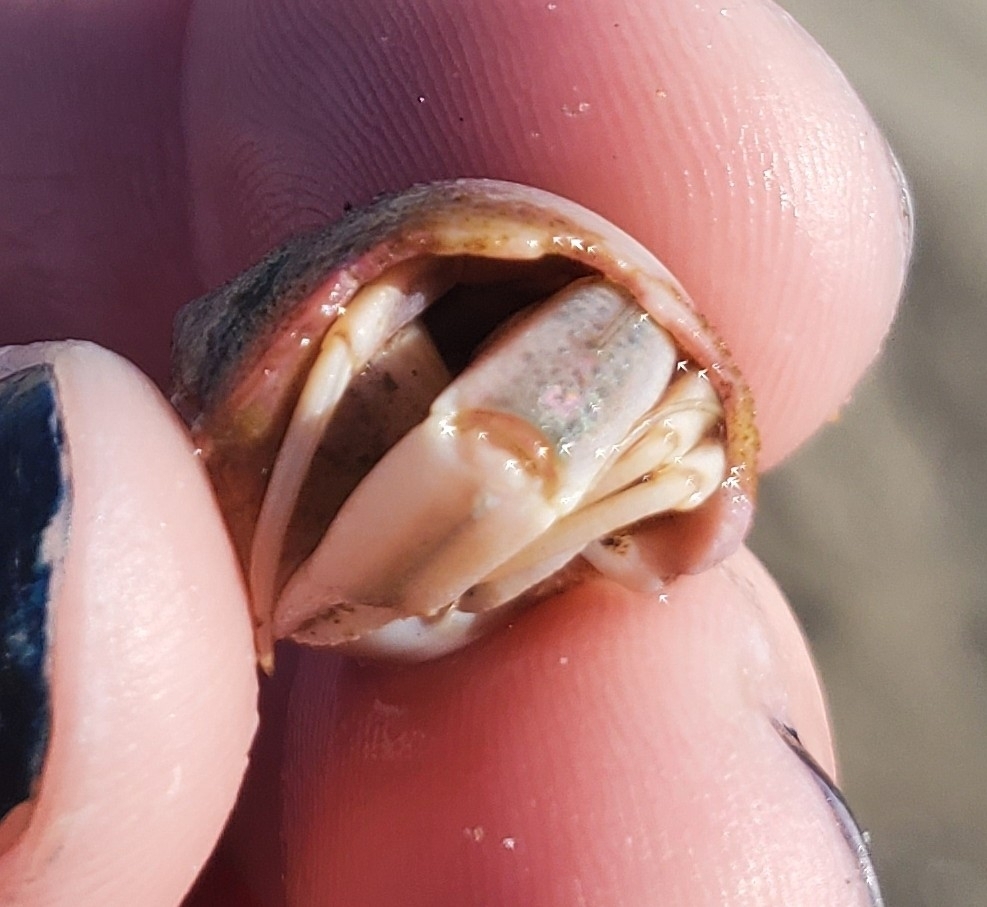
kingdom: Animalia
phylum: Arthropoda
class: Malacostraca
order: Decapoda
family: Paguridae
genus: Pagurus
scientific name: Pagurus longicarpus
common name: Long-armed hermit crab
